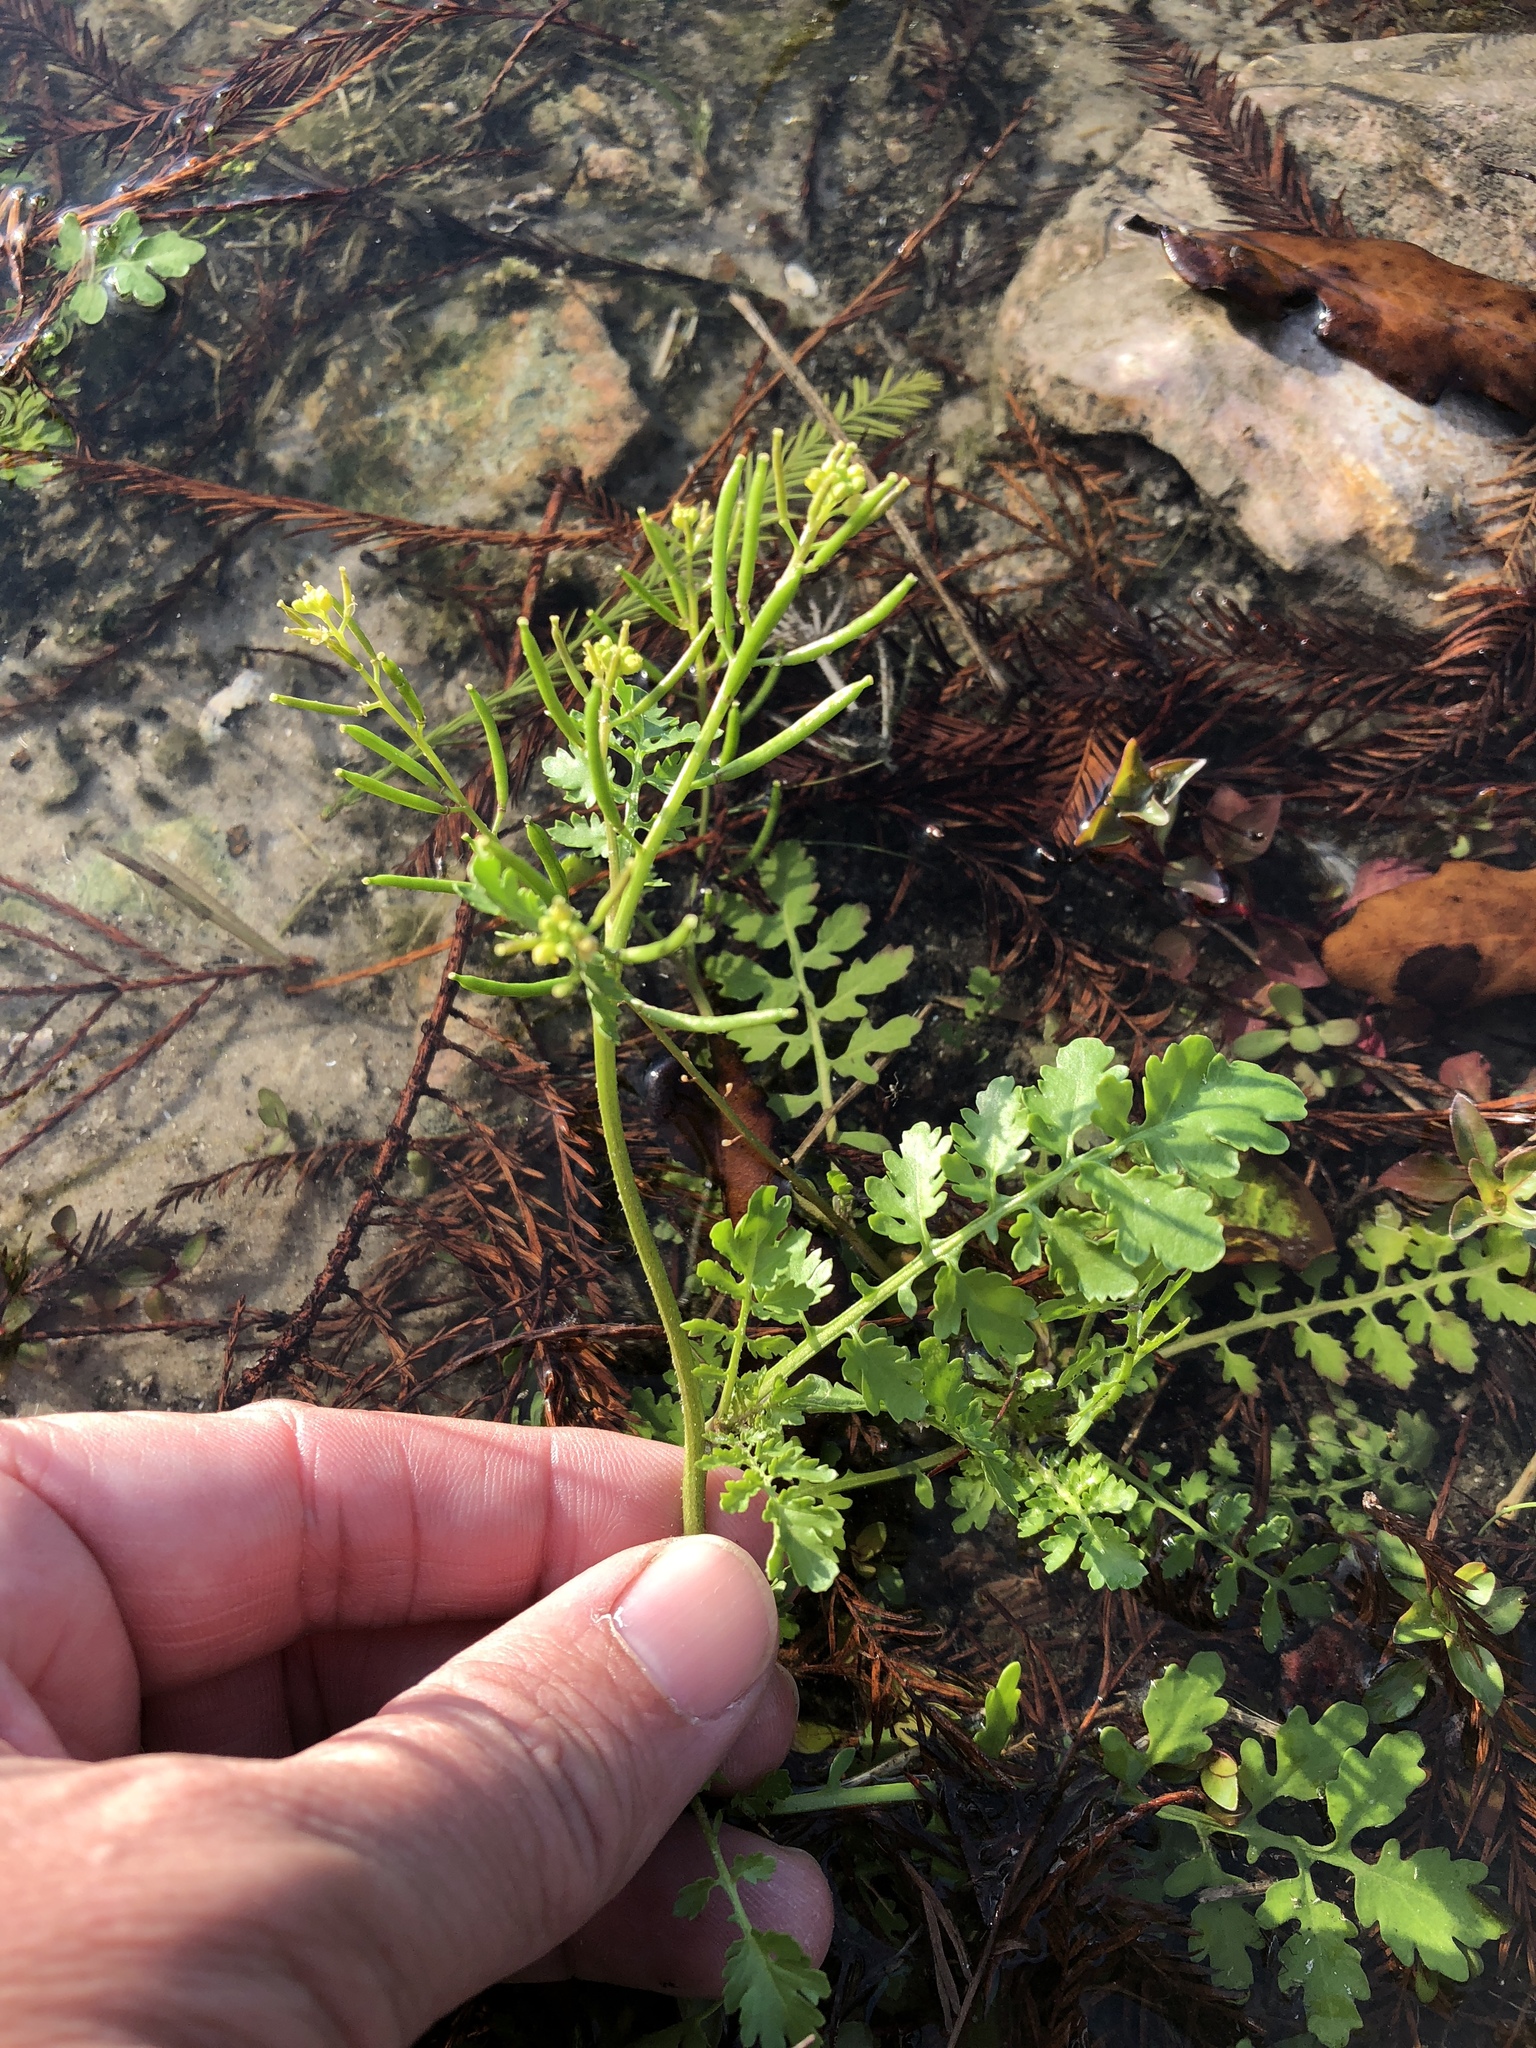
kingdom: Plantae
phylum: Tracheophyta
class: Magnoliopsida
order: Brassicales
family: Brassicaceae
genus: Rorippa
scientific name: Rorippa teres
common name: Southern marsh yellowcress
